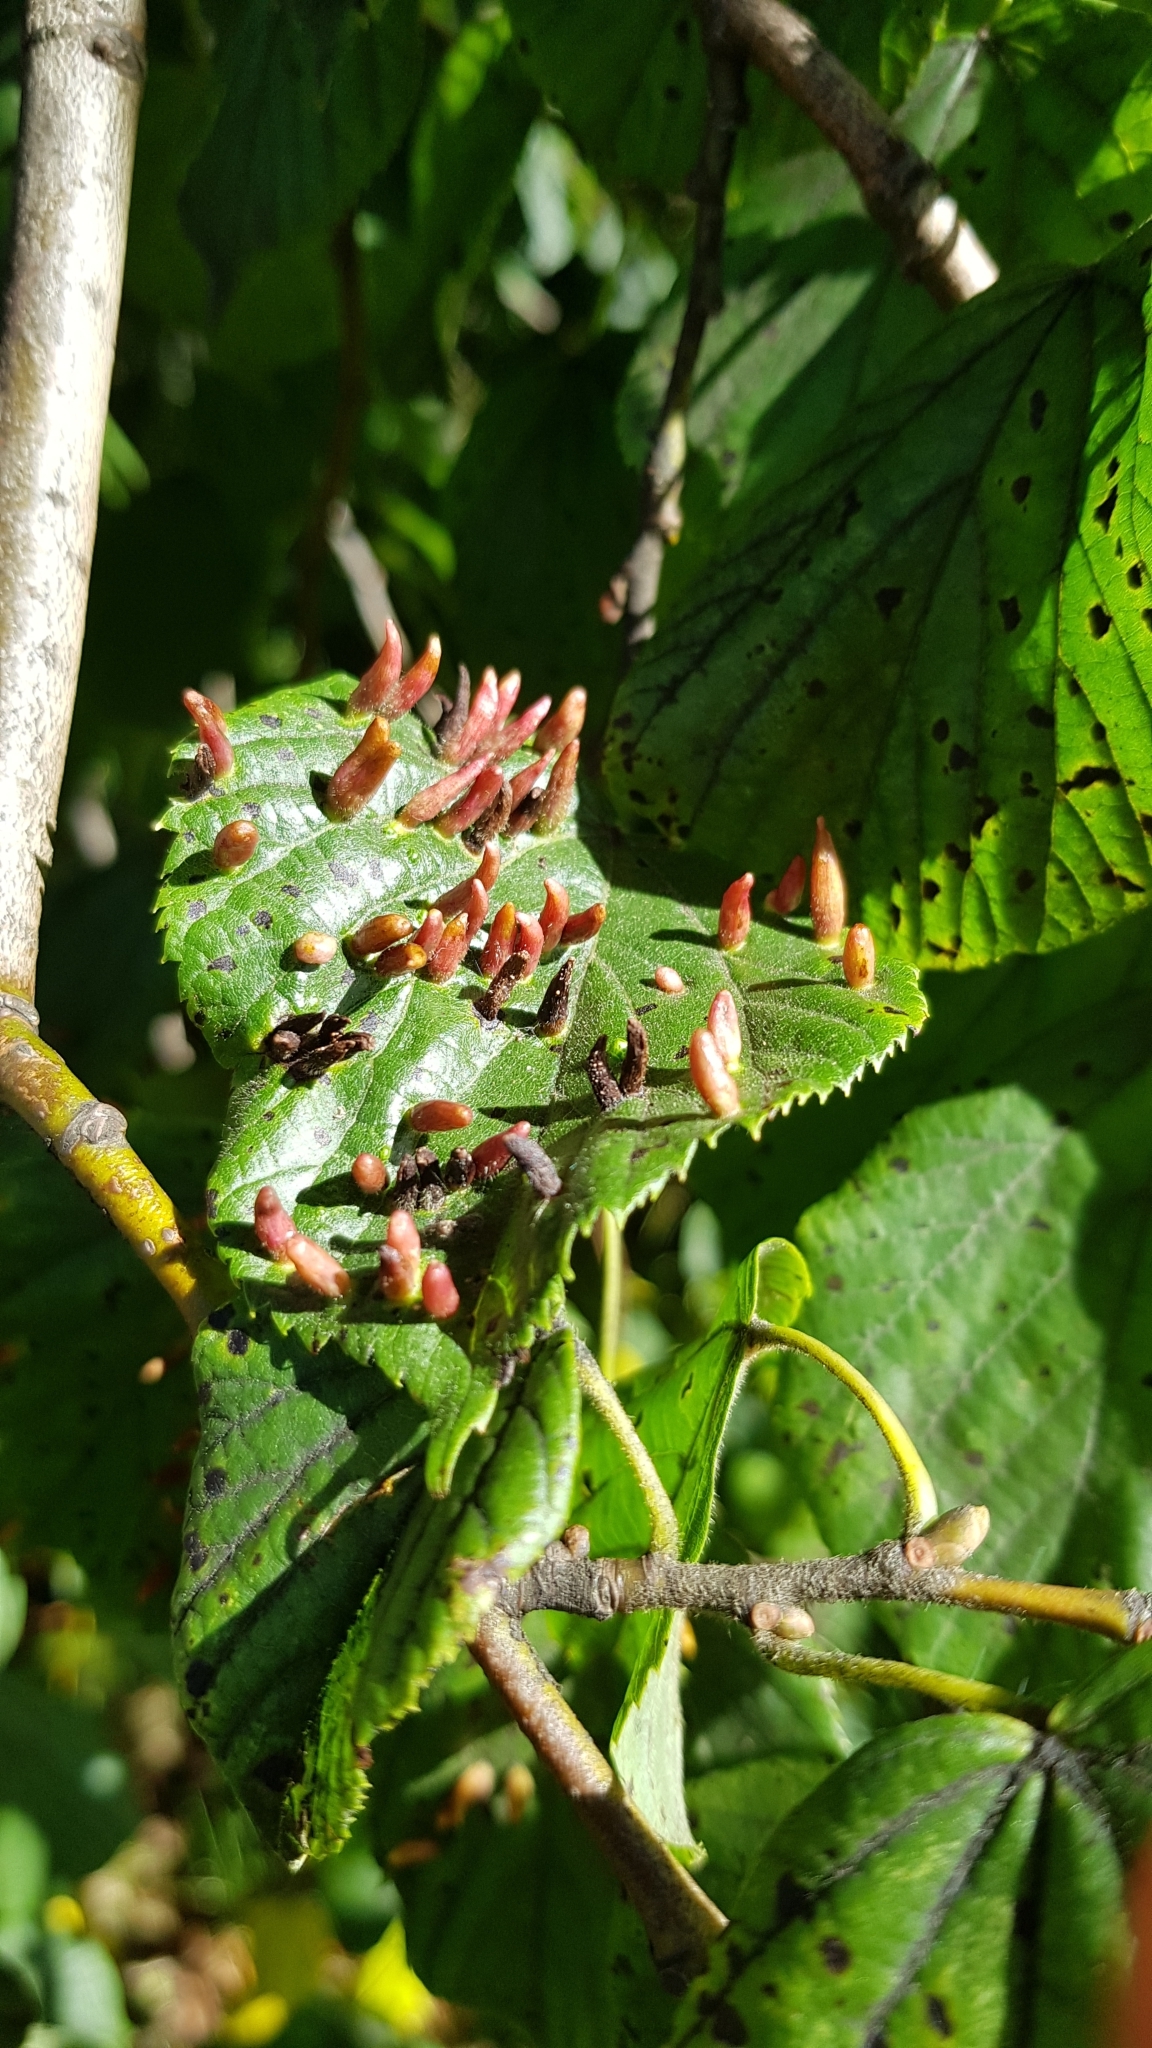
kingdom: Animalia
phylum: Arthropoda
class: Arachnida
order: Trombidiformes
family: Eriophyidae
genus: Eriophyes
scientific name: Eriophyes tiliae
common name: Red nail gall mite
